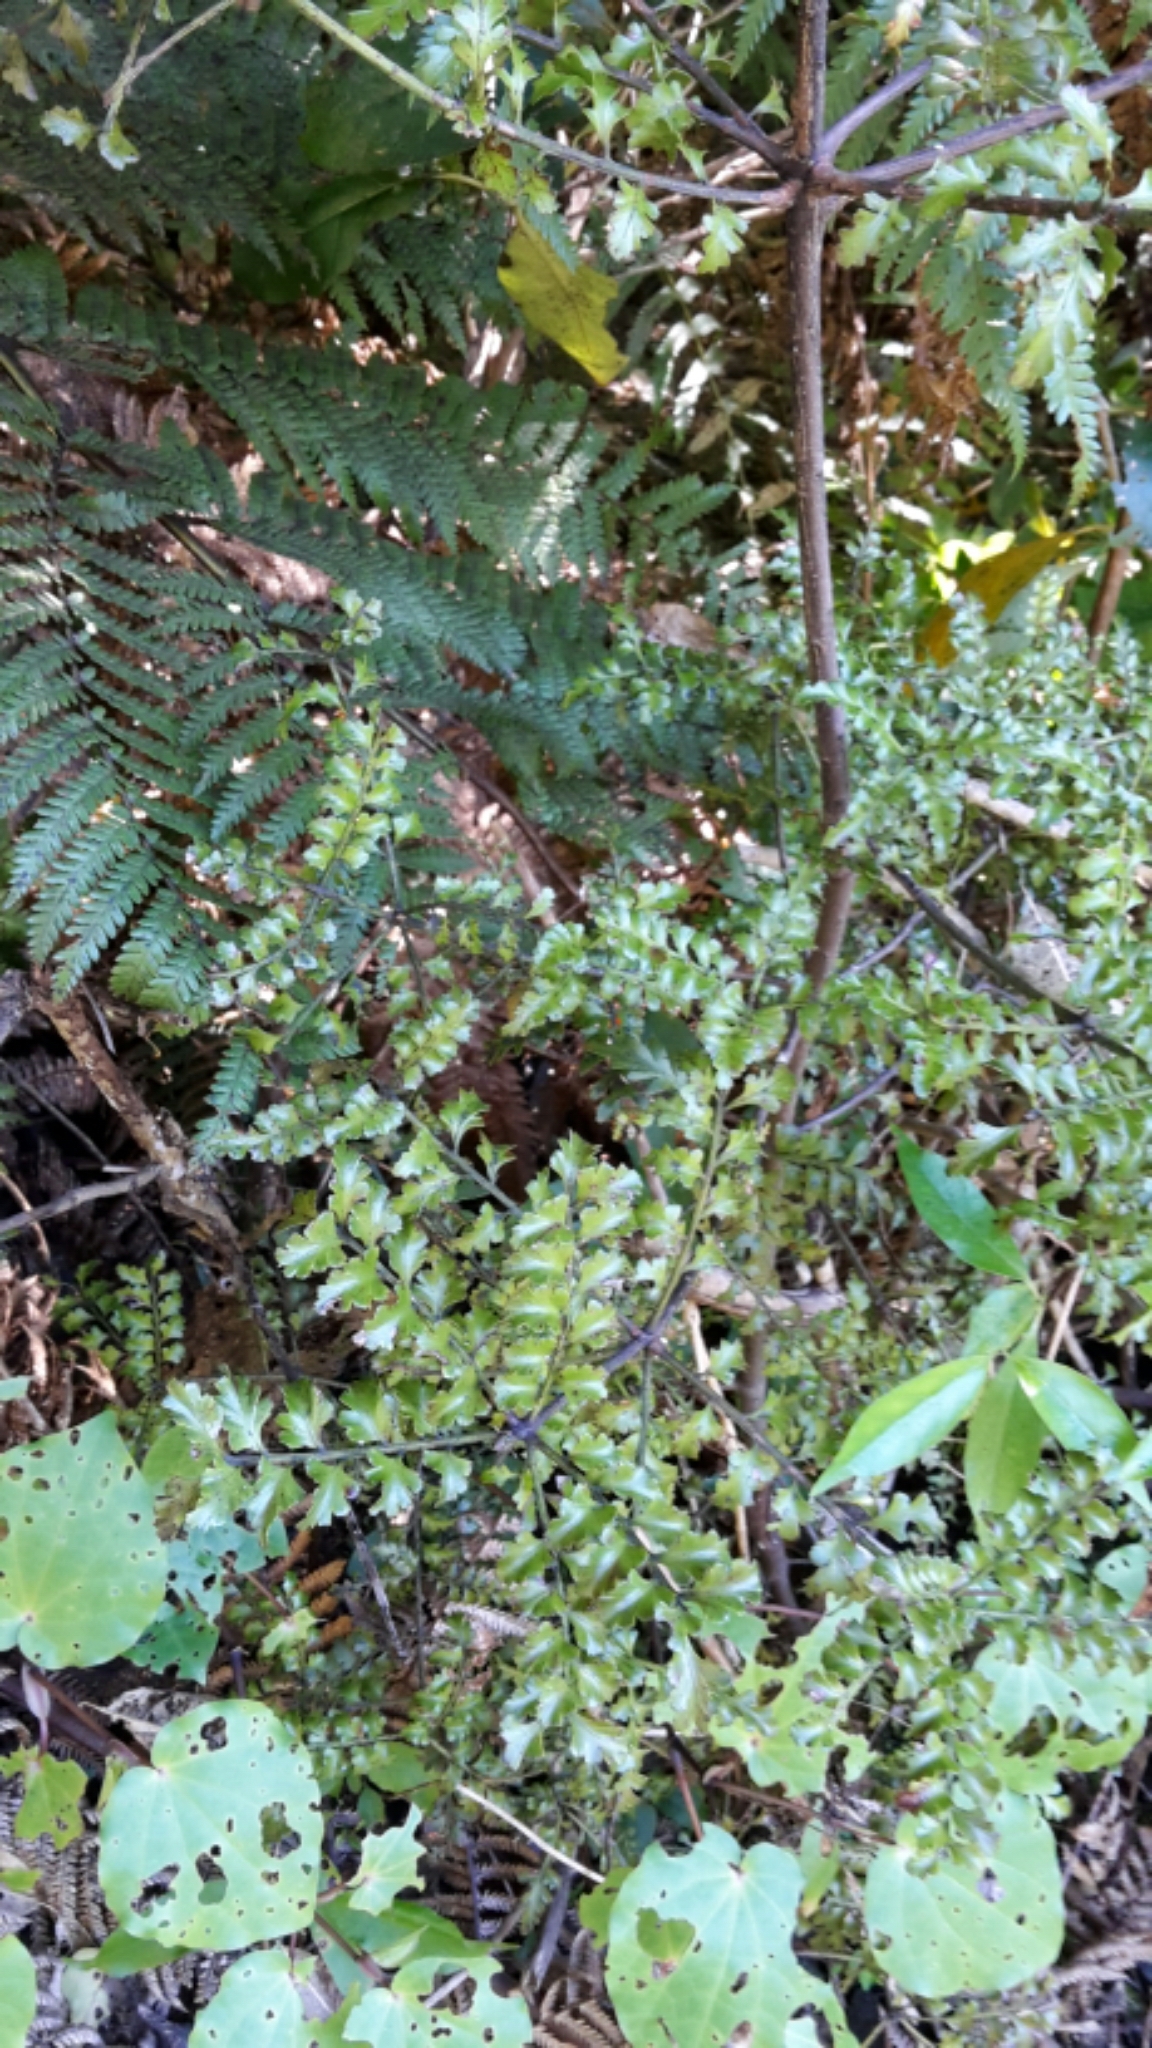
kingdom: Plantae
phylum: Tracheophyta
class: Pinopsida
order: Pinales
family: Phyllocladaceae
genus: Phyllocladus
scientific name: Phyllocladus trichomanoides
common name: Celery pine
